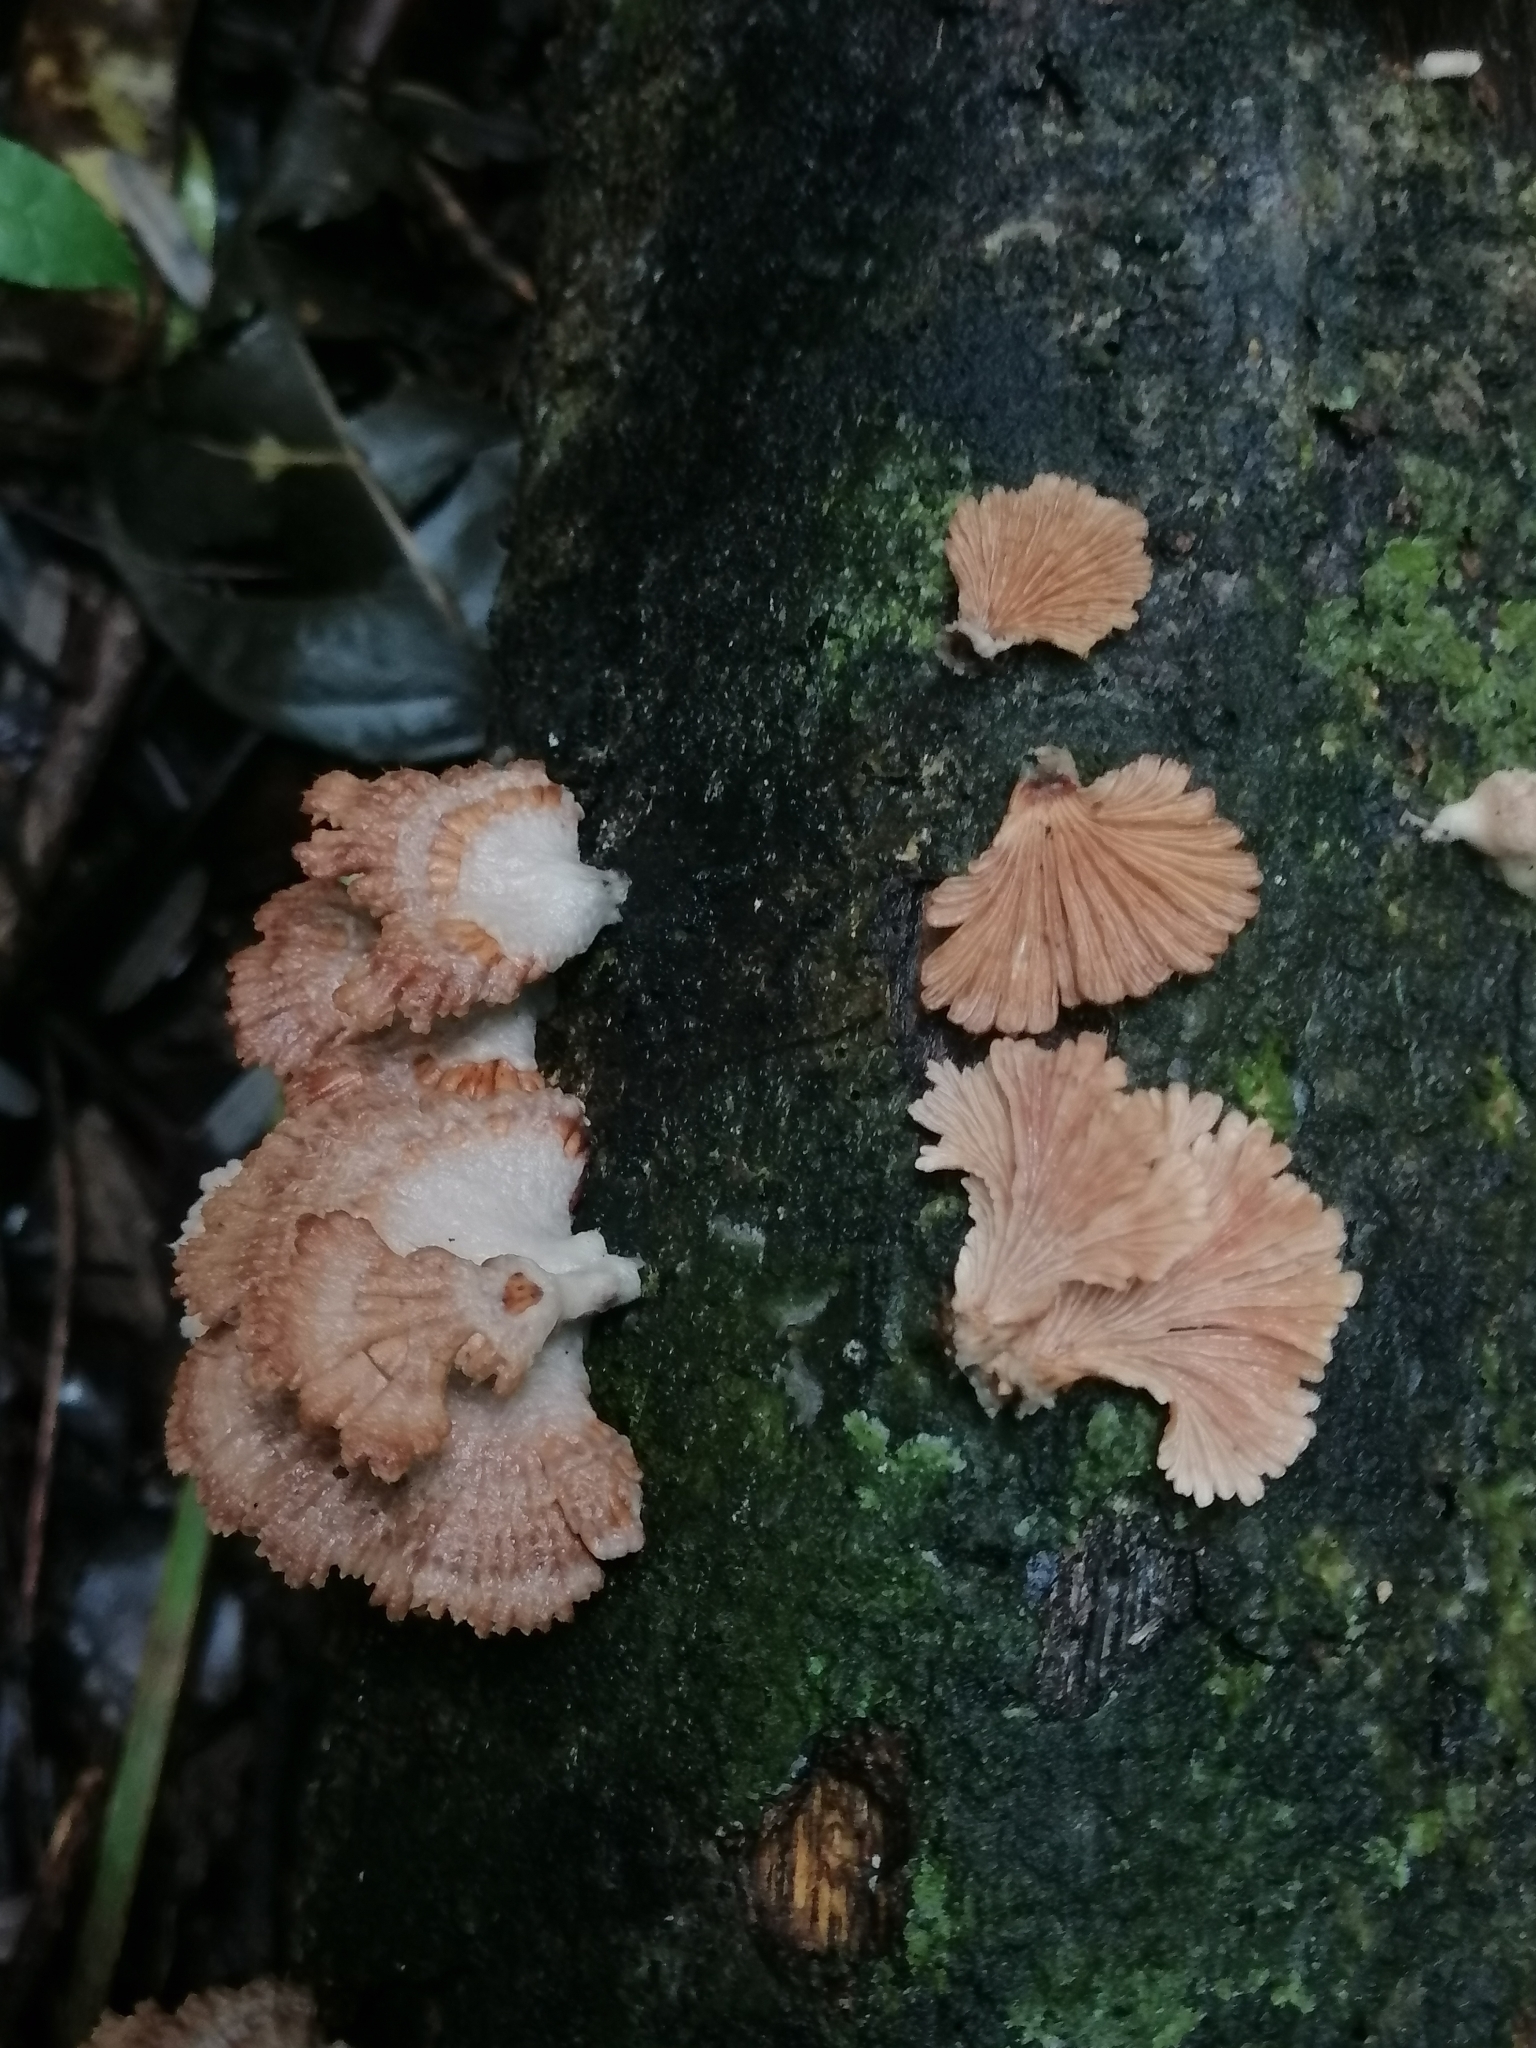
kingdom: Fungi
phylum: Basidiomycota
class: Agaricomycetes
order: Agaricales
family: Schizophyllaceae
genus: Schizophyllum
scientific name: Schizophyllum commune
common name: Common porecrust
